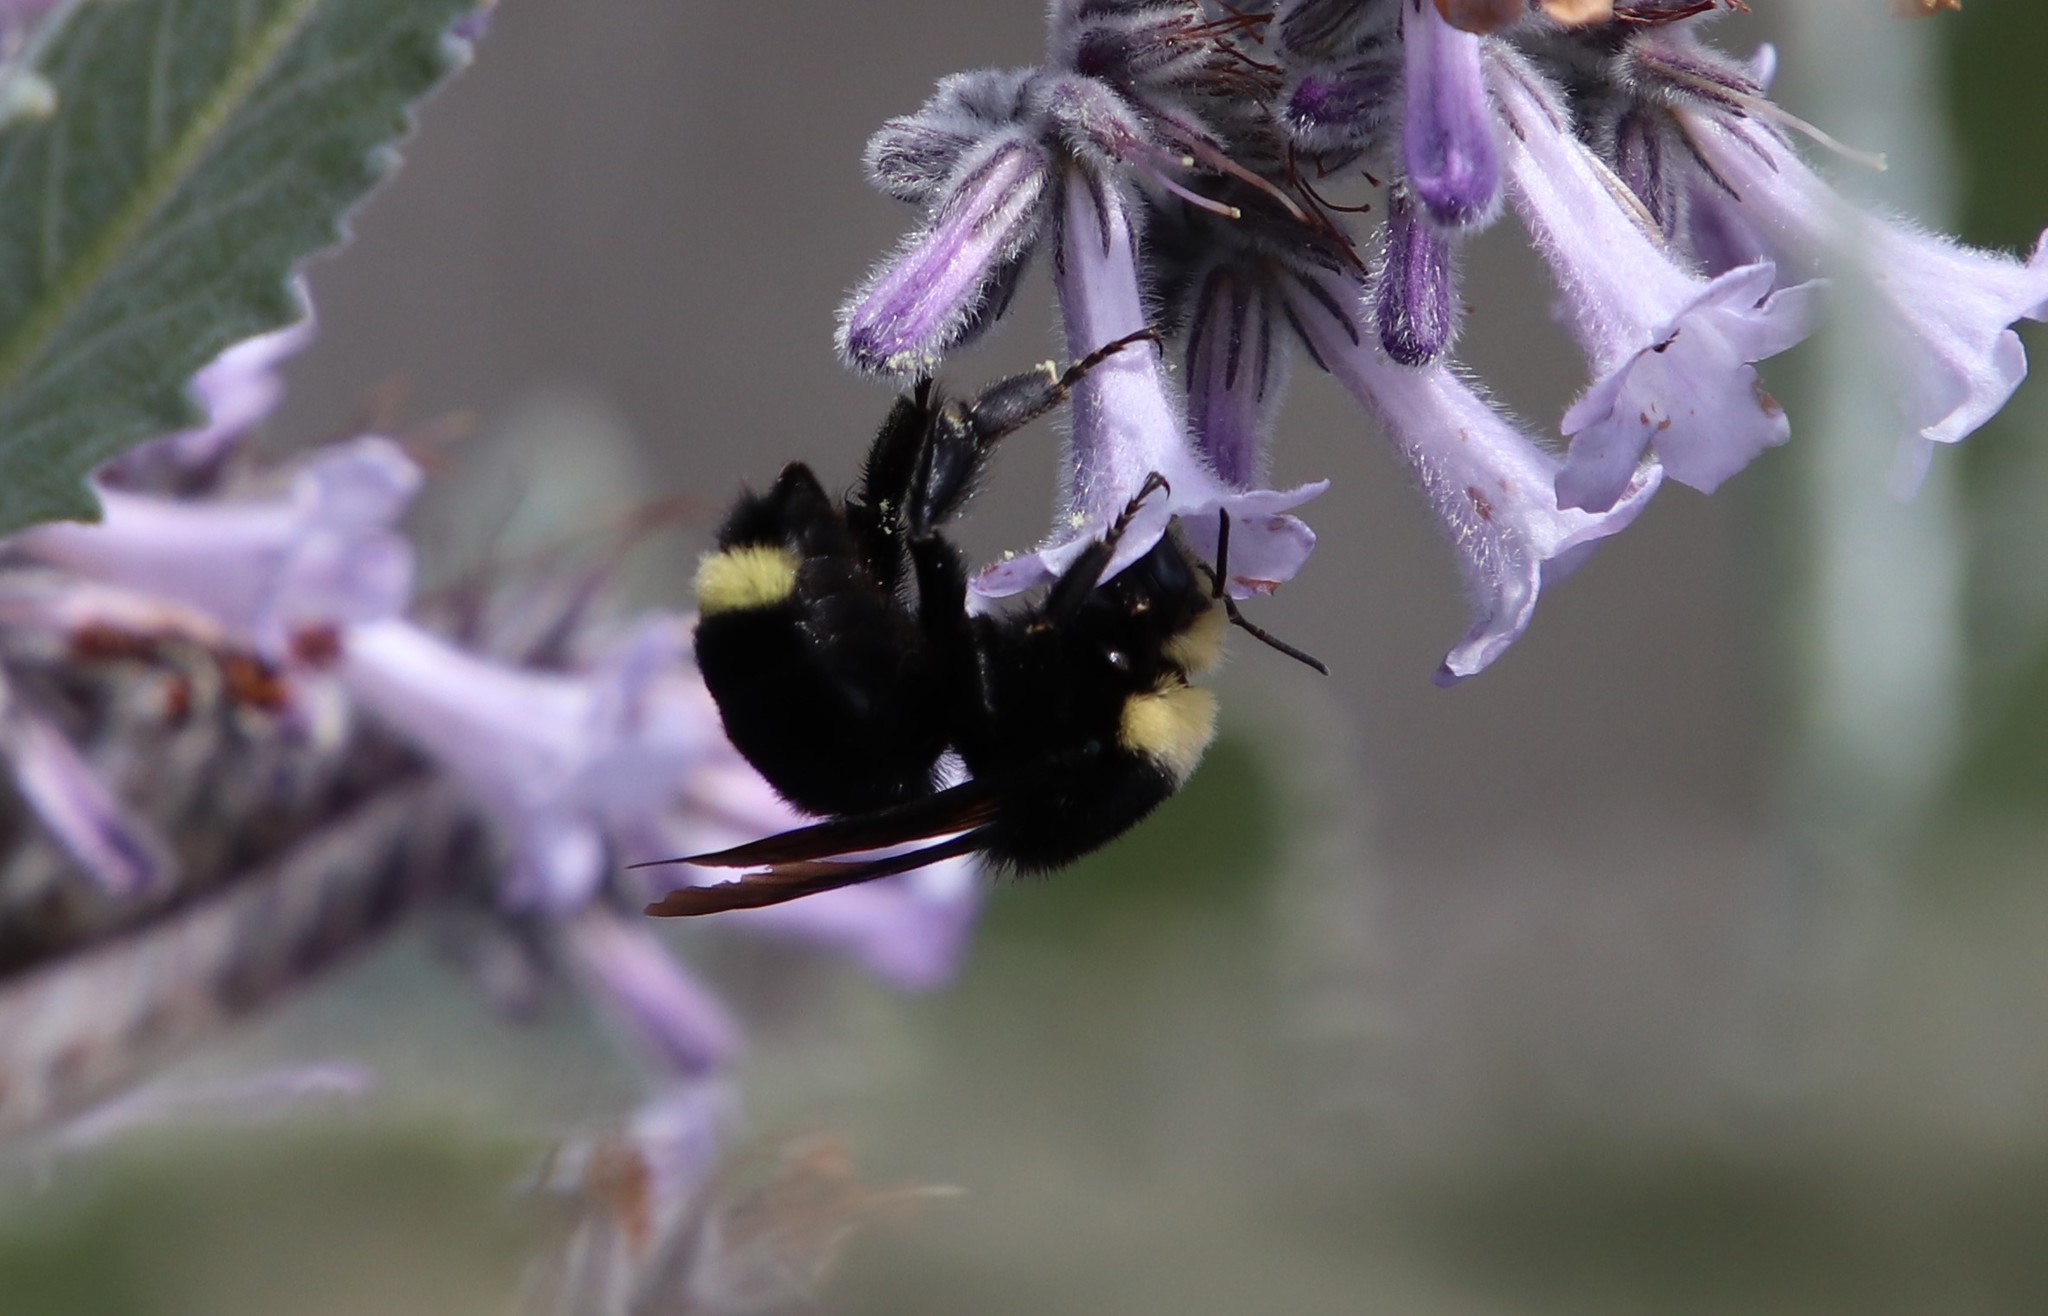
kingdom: Animalia
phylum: Arthropoda
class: Insecta
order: Hymenoptera
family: Apidae
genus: Bombus
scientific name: Bombus vosnesenskii
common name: Vosnesensky bumble bee
